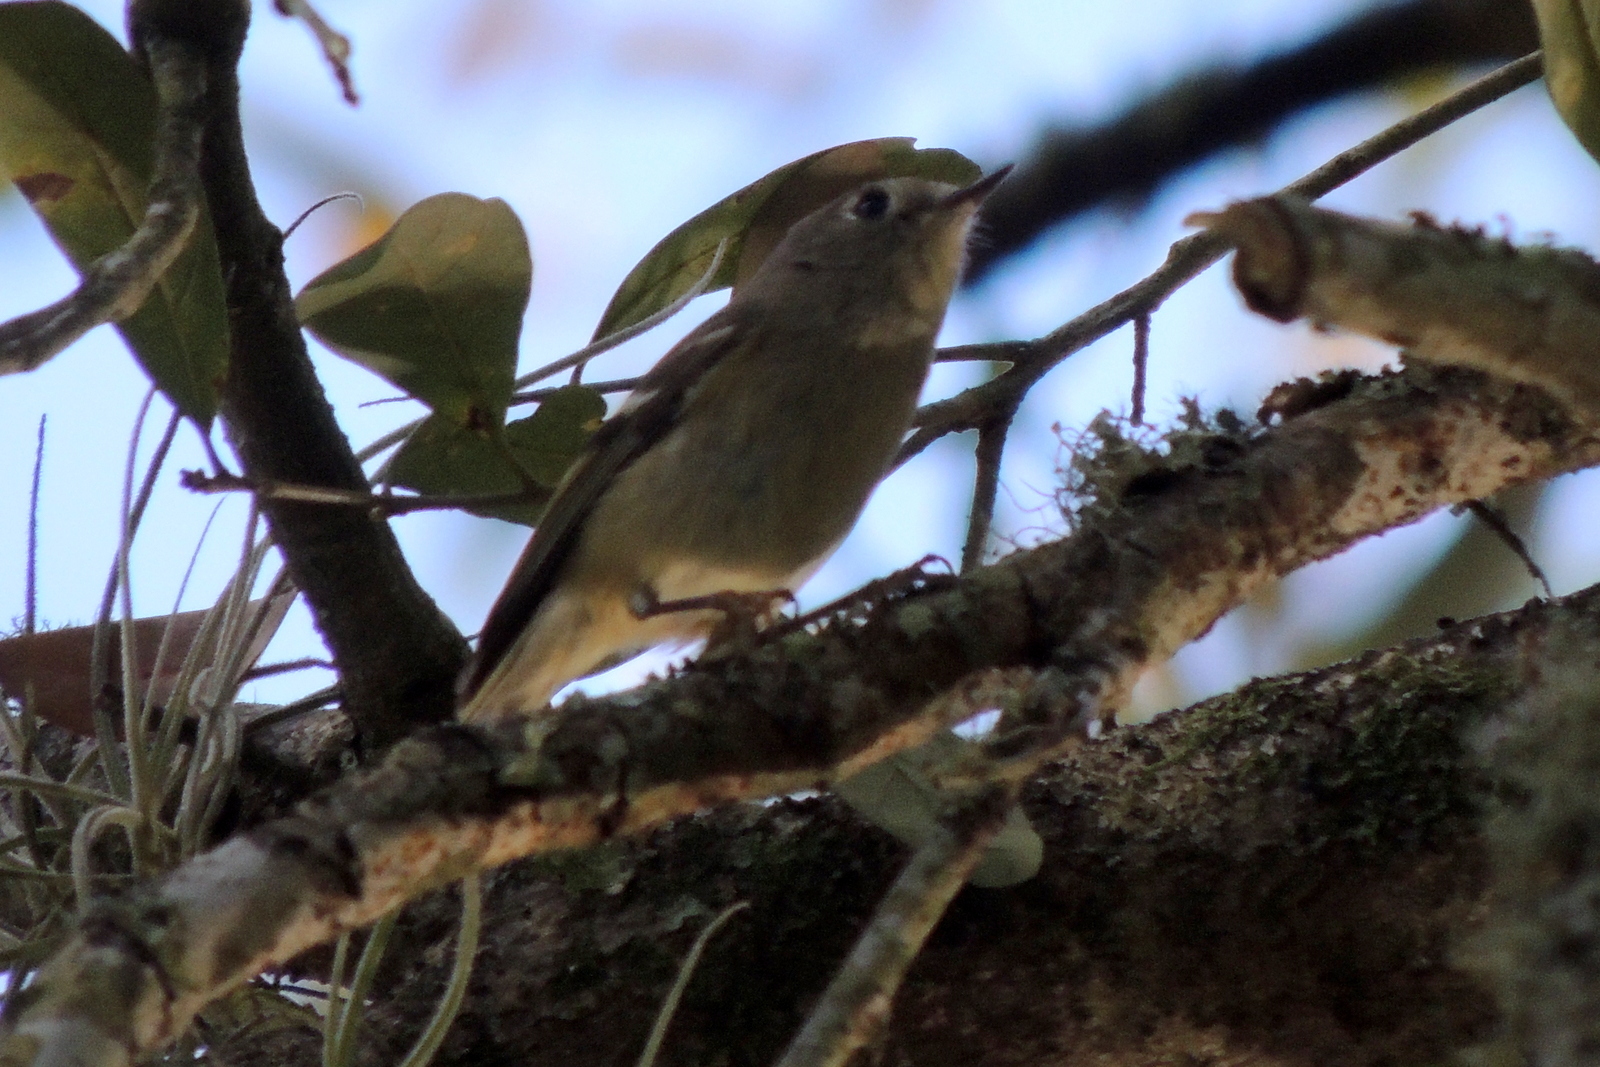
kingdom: Animalia
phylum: Chordata
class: Aves
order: Passeriformes
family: Regulidae
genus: Regulus
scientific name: Regulus calendula
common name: Ruby-crowned kinglet
